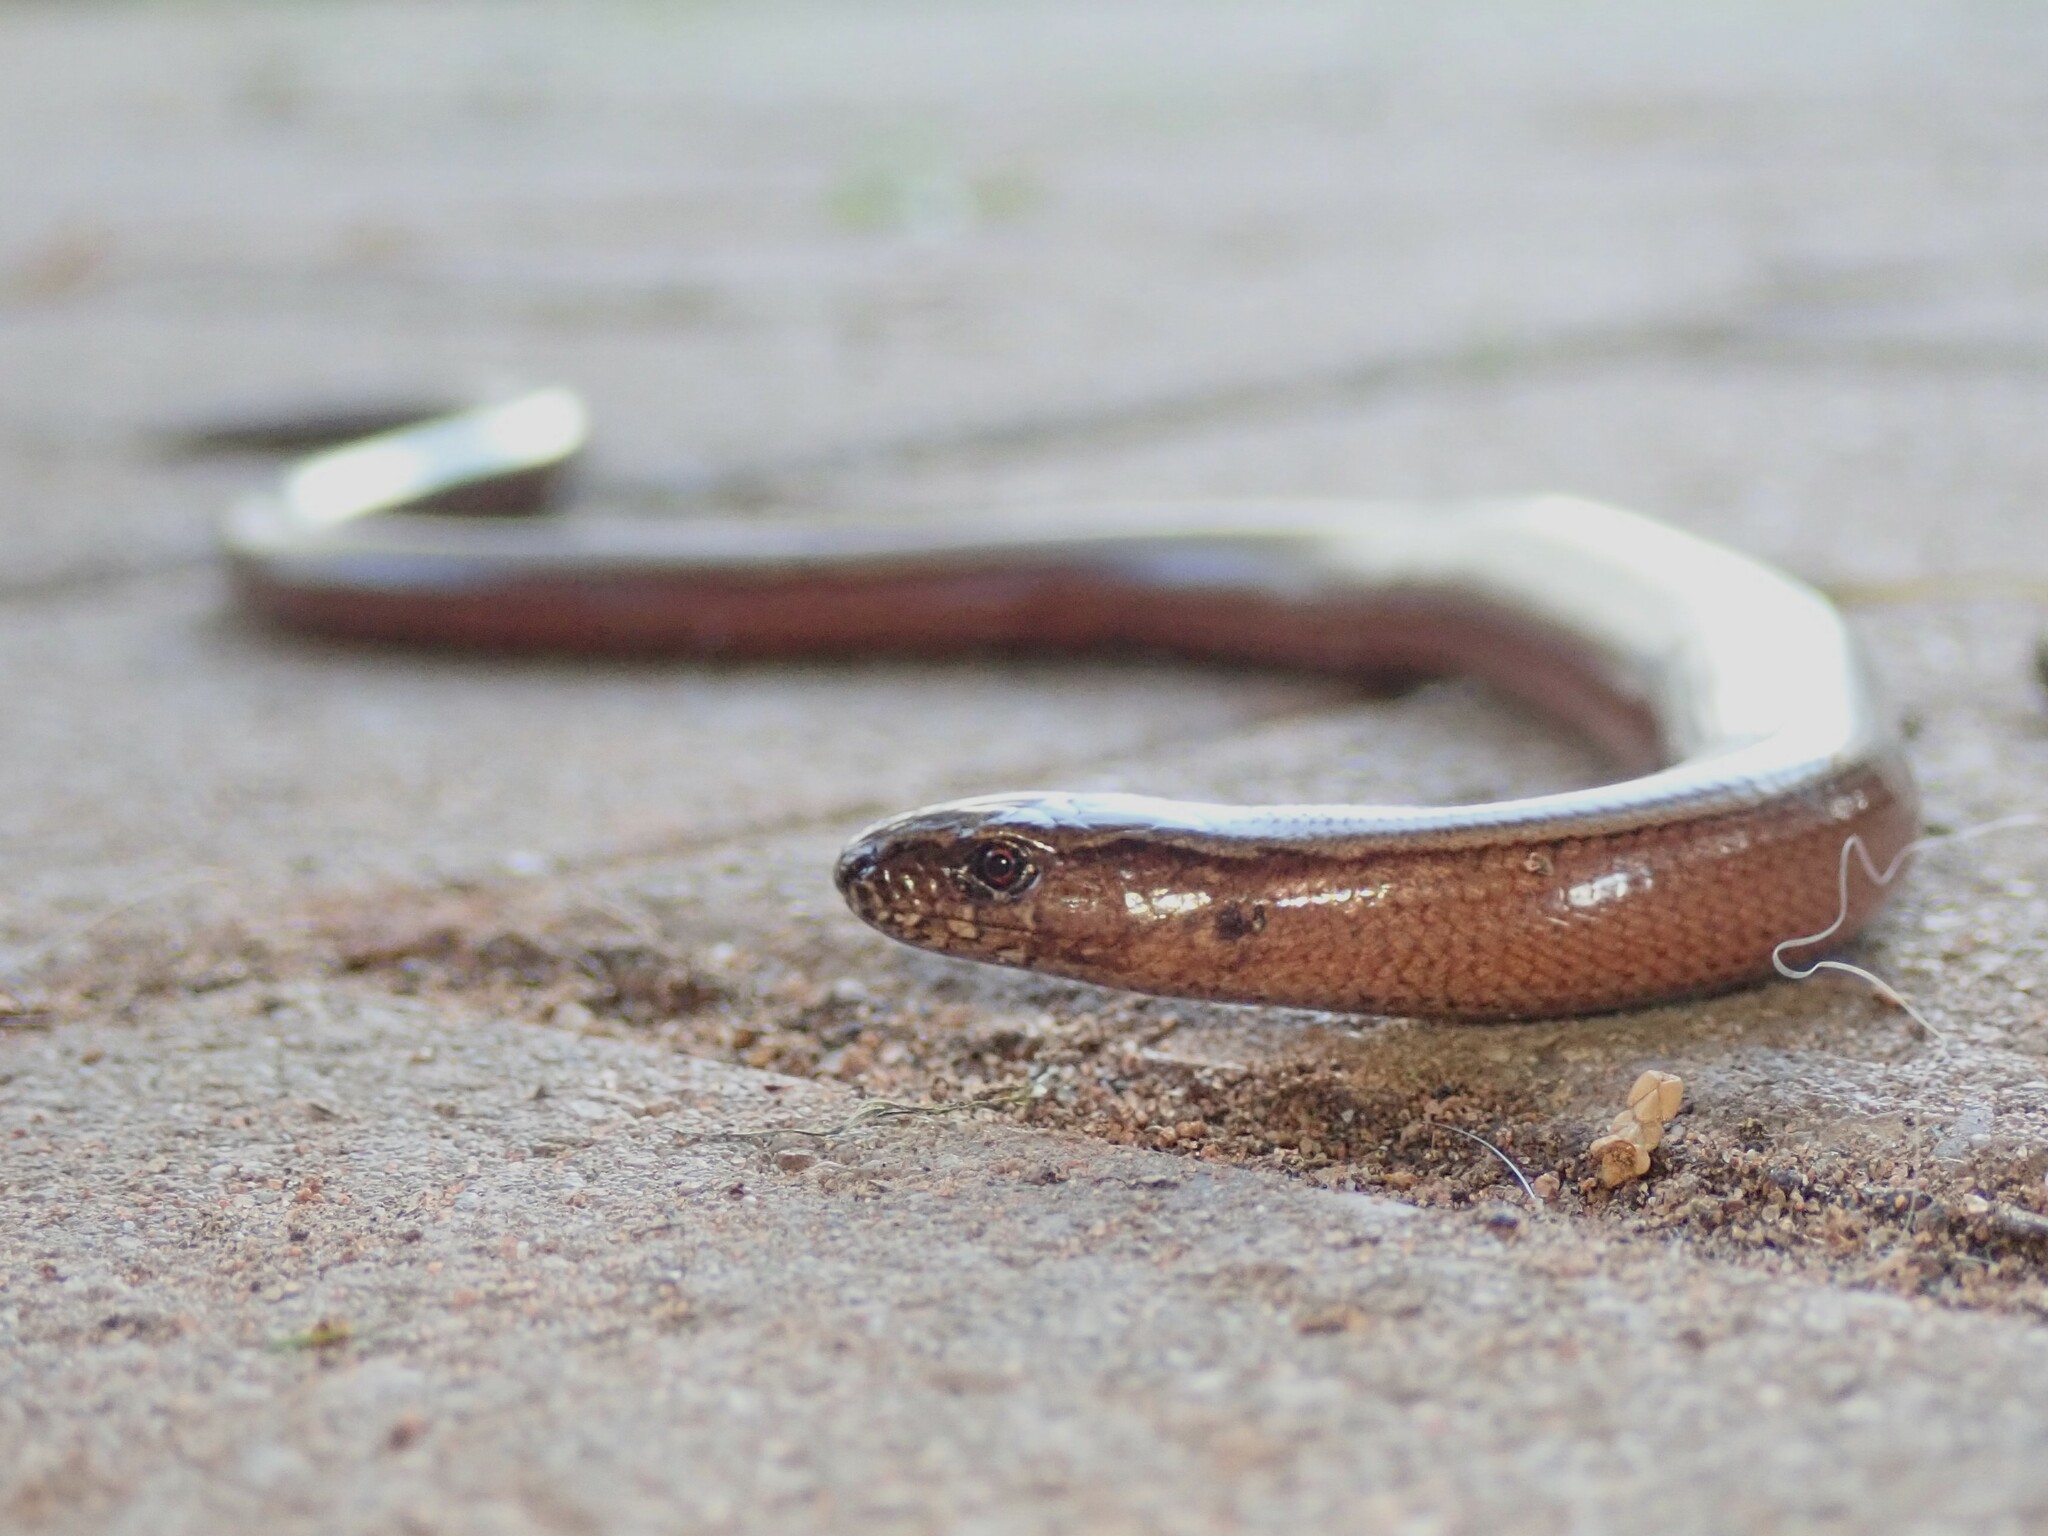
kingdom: Animalia
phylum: Chordata
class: Squamata
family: Anguidae
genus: Anguis
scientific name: Anguis fragilis
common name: Slow worm
